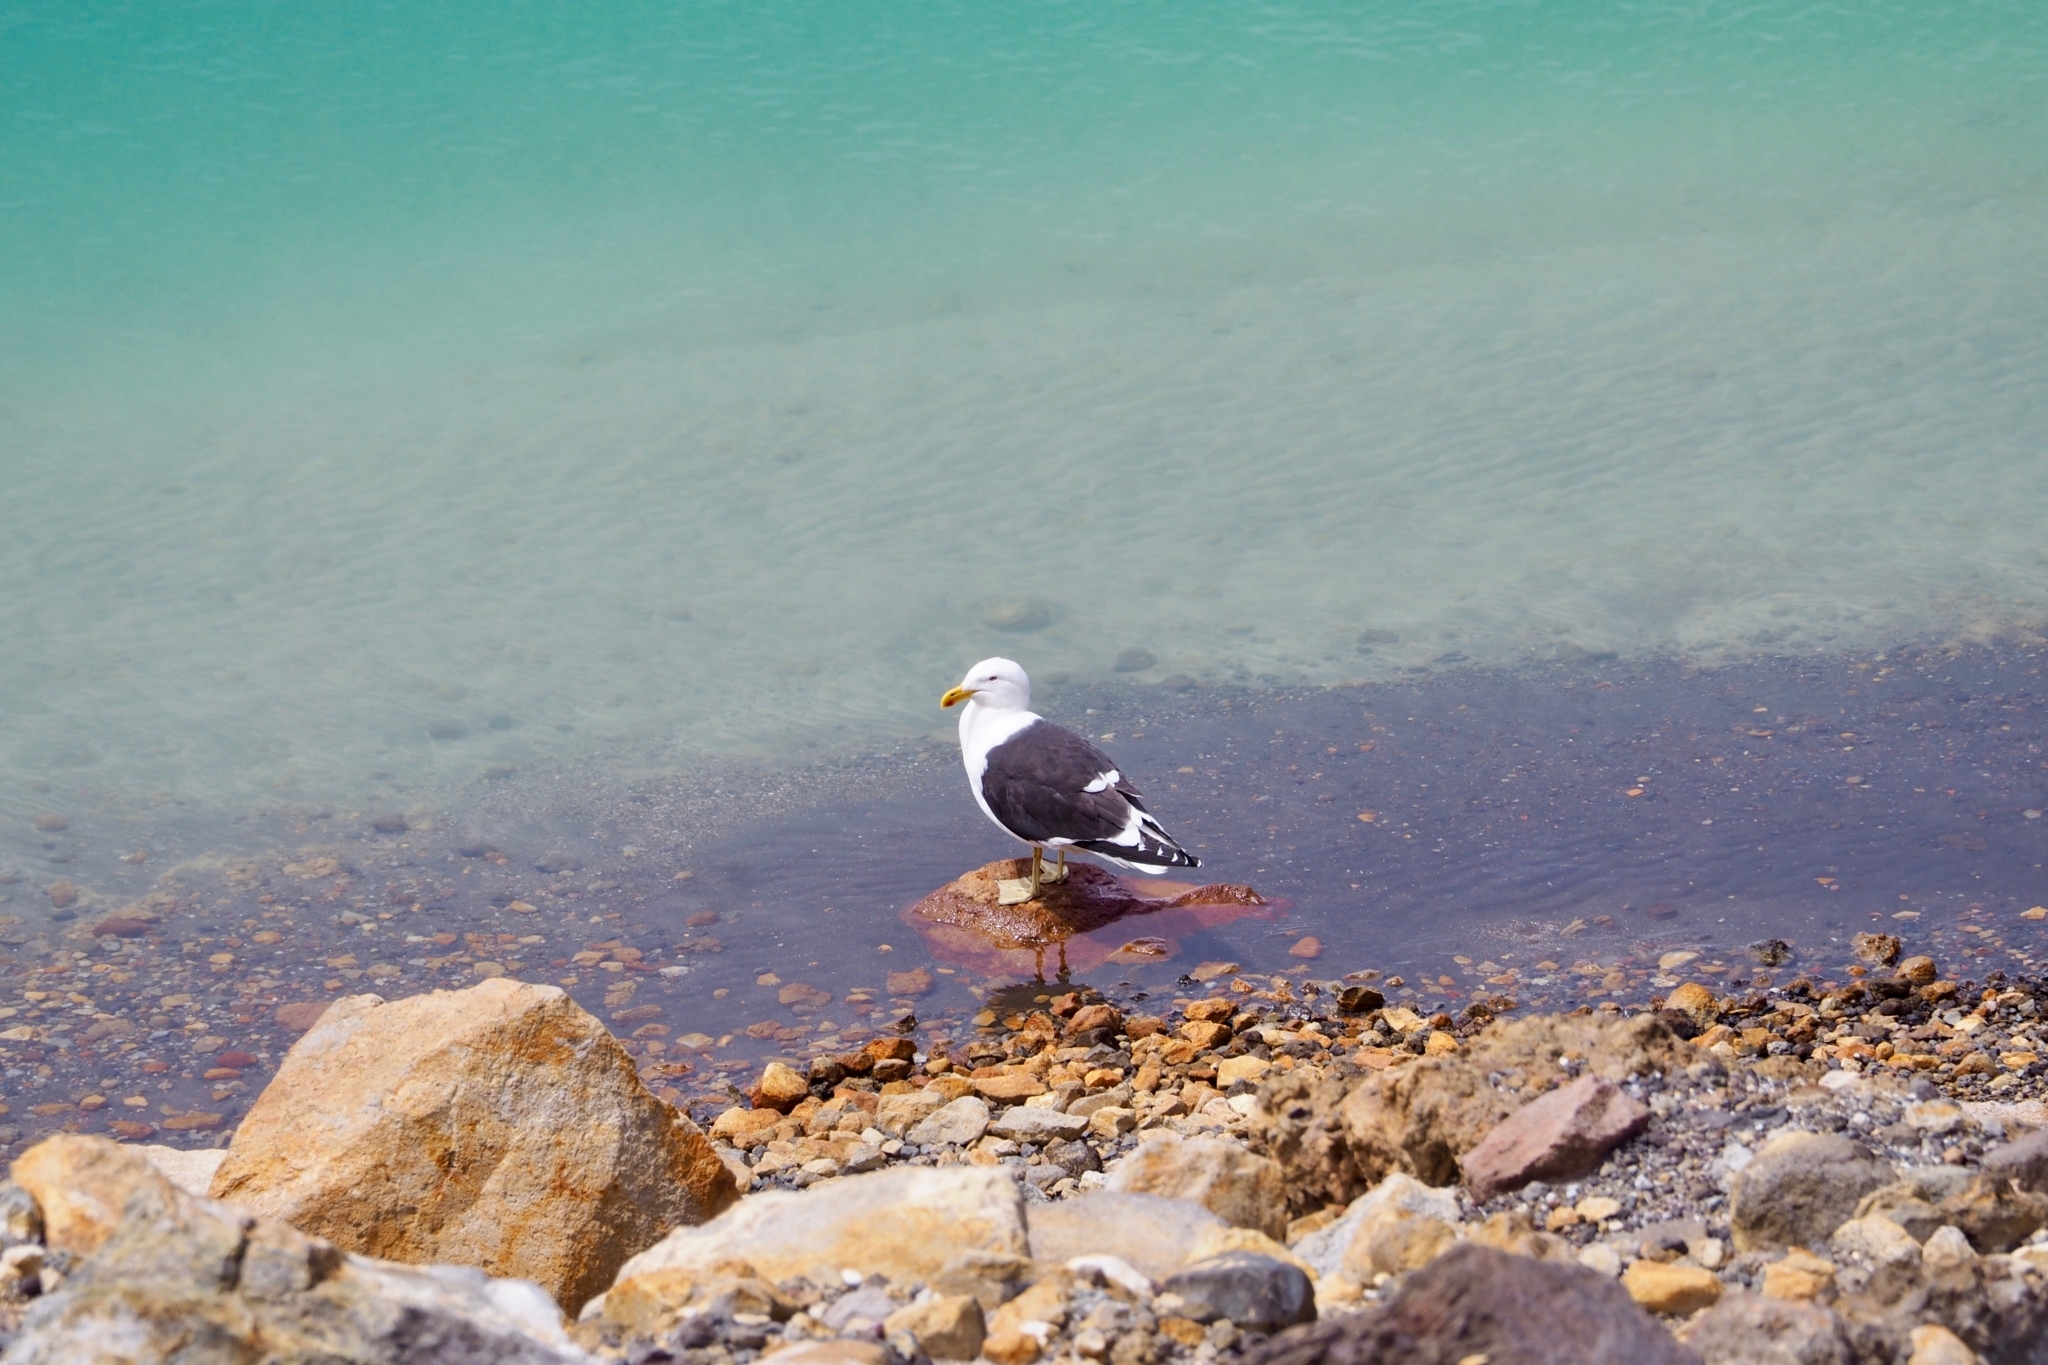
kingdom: Animalia
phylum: Chordata
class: Aves
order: Charadriiformes
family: Laridae
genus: Larus
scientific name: Larus dominicanus
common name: Kelp gull
